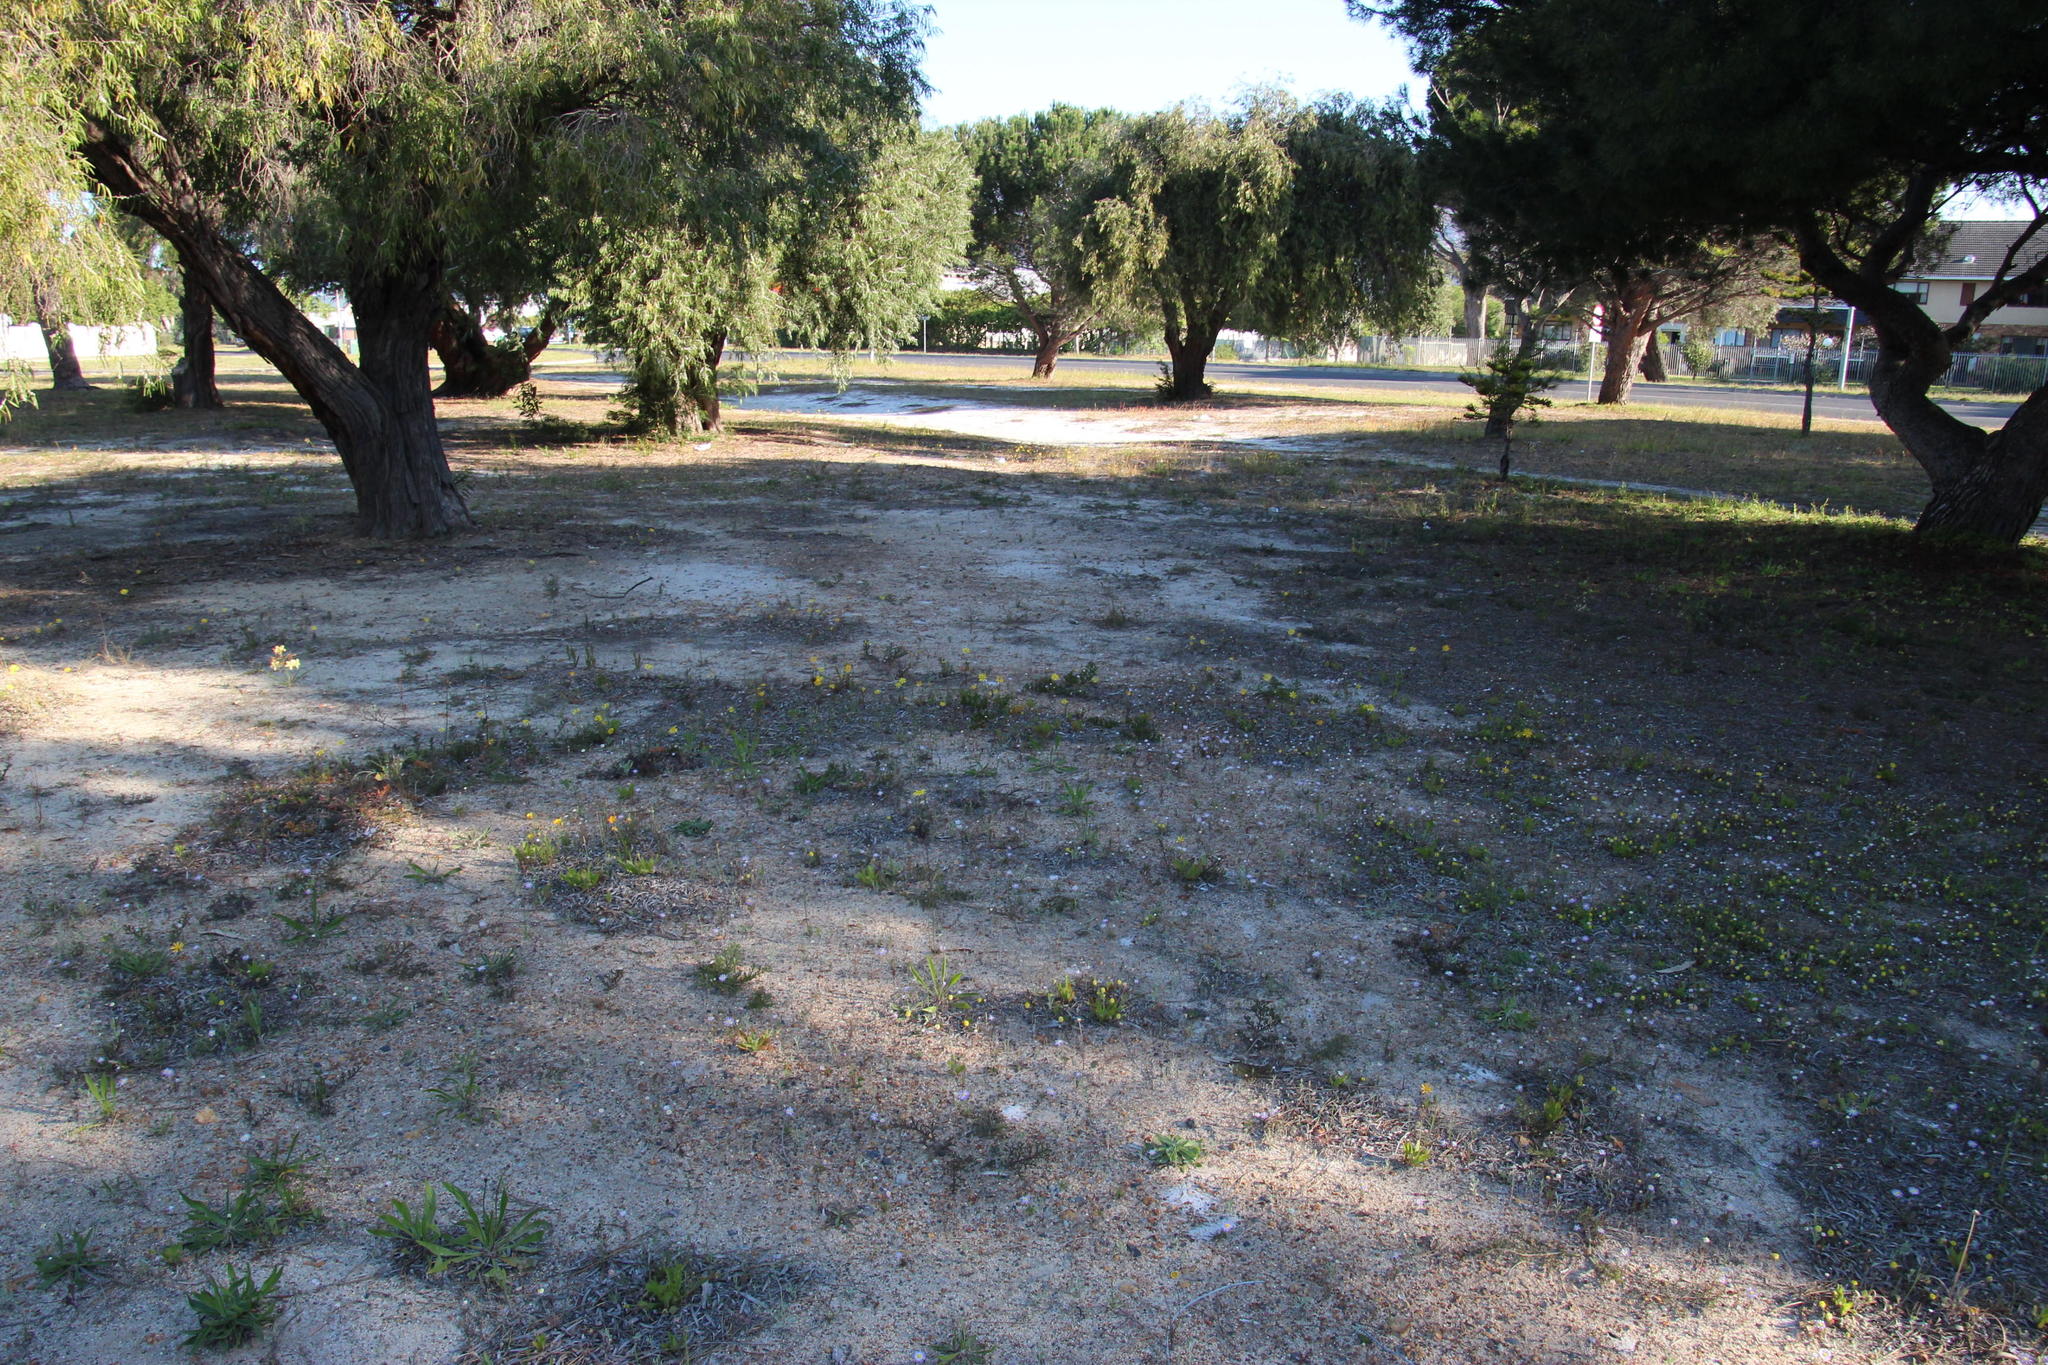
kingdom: Plantae
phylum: Tracheophyta
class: Magnoliopsida
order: Asterales
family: Asteraceae
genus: Ursinia
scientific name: Ursinia anthemoides
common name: Ursinia
